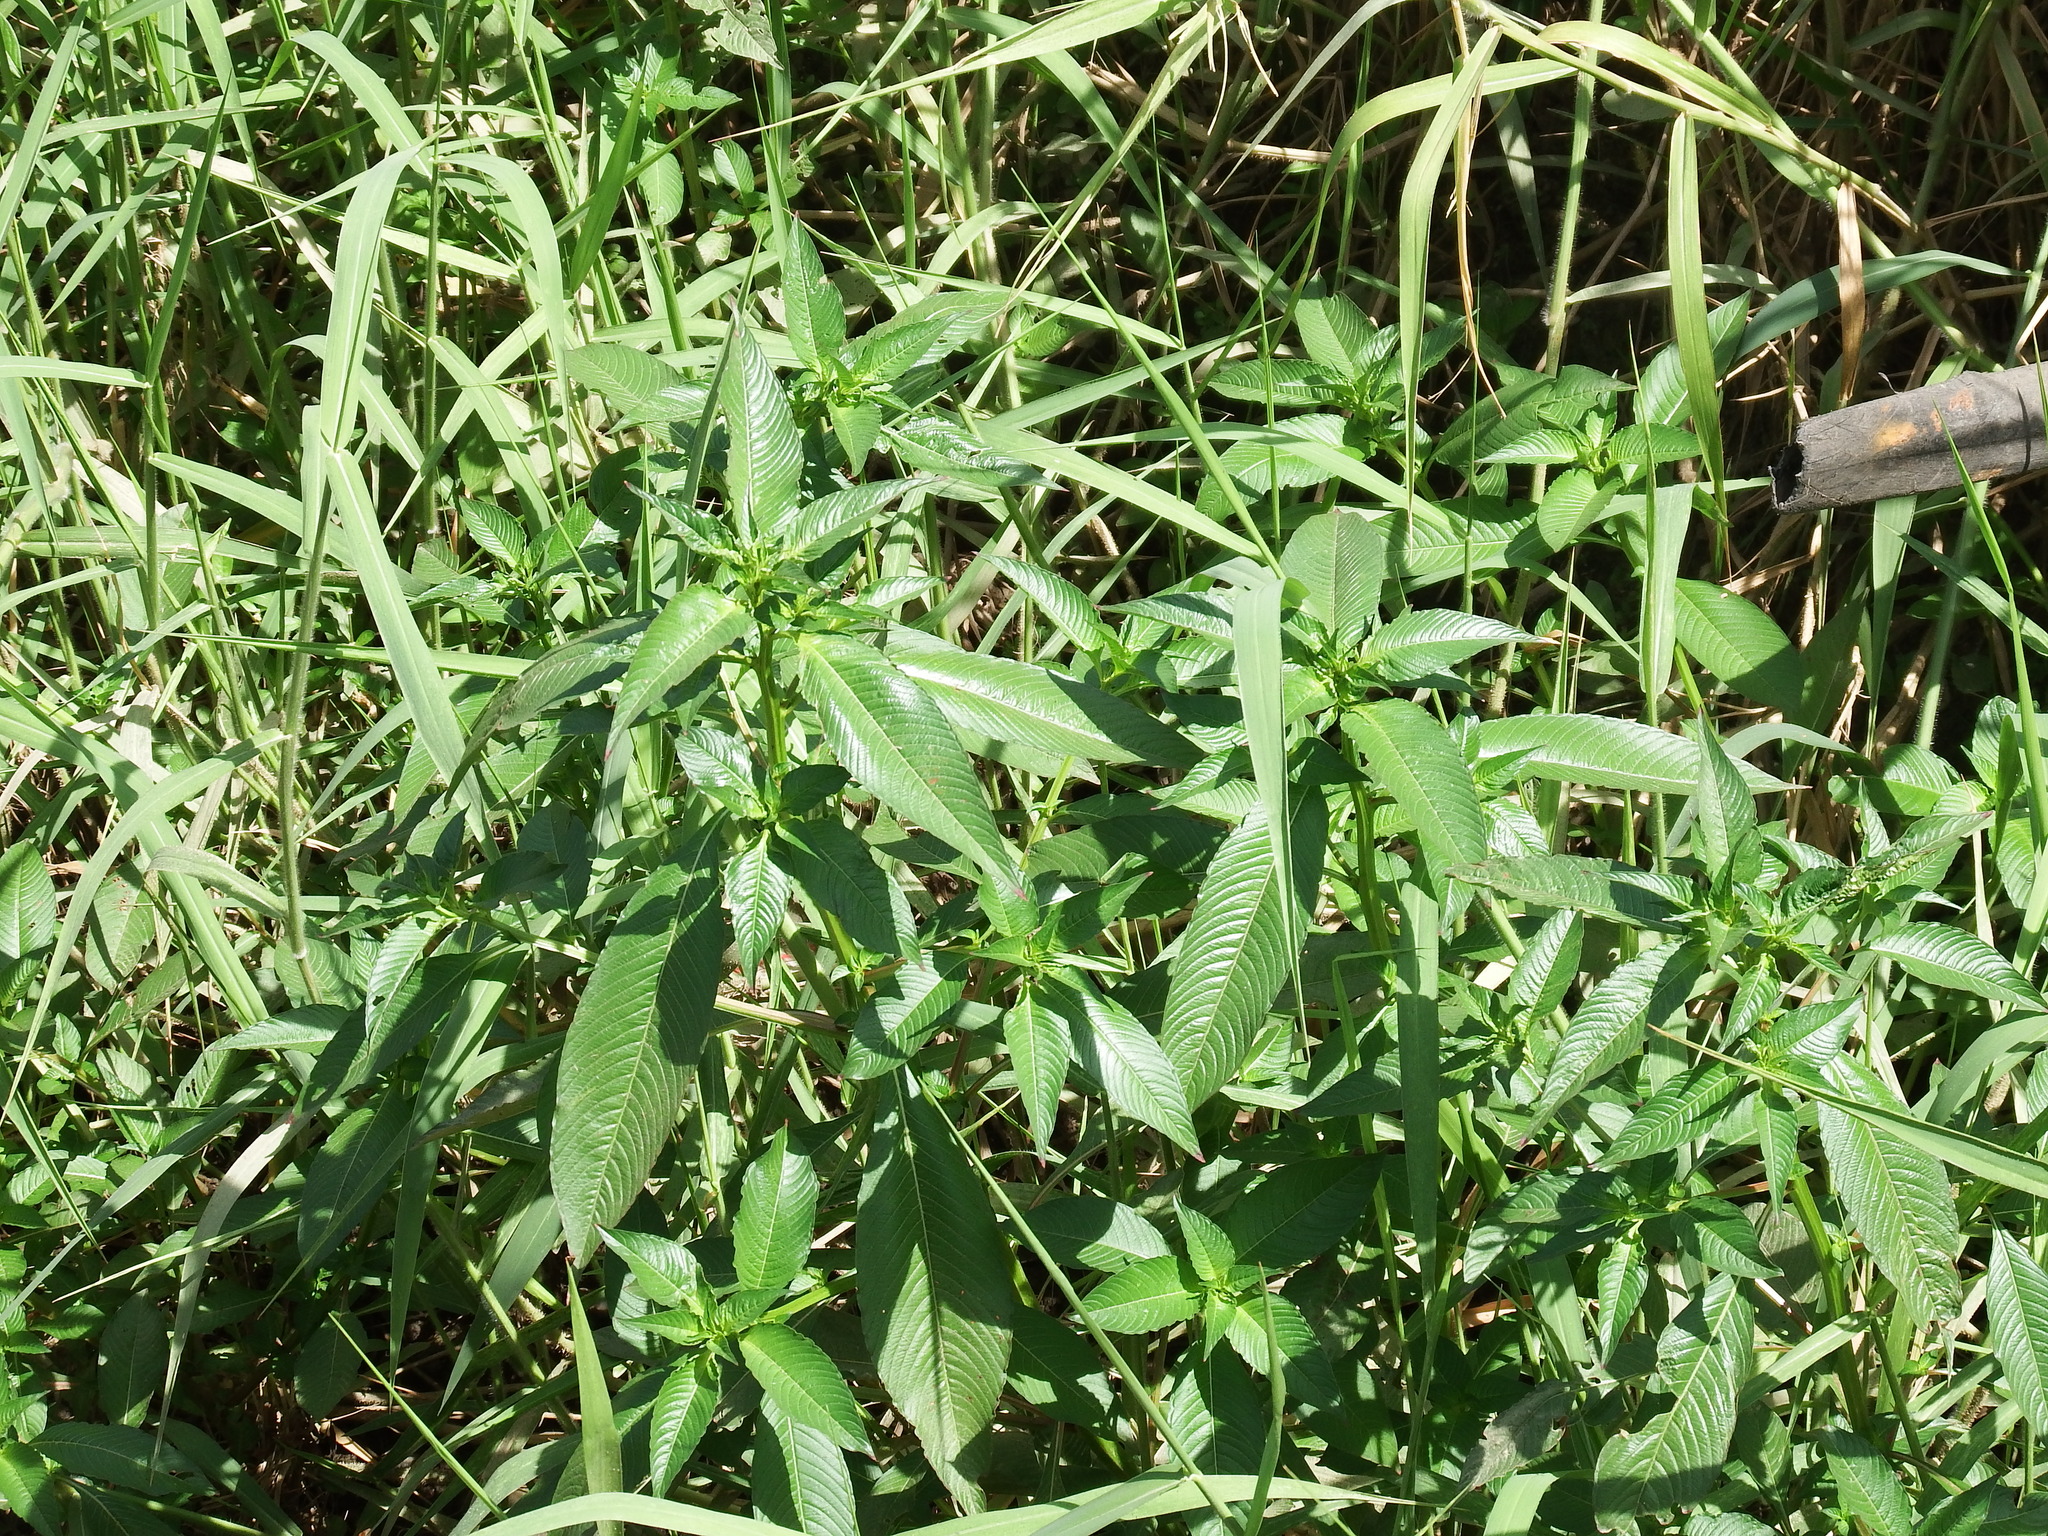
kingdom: Plantae
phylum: Tracheophyta
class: Magnoliopsida
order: Myrtales
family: Onagraceae
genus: Ludwigia
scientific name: Ludwigia erecta
